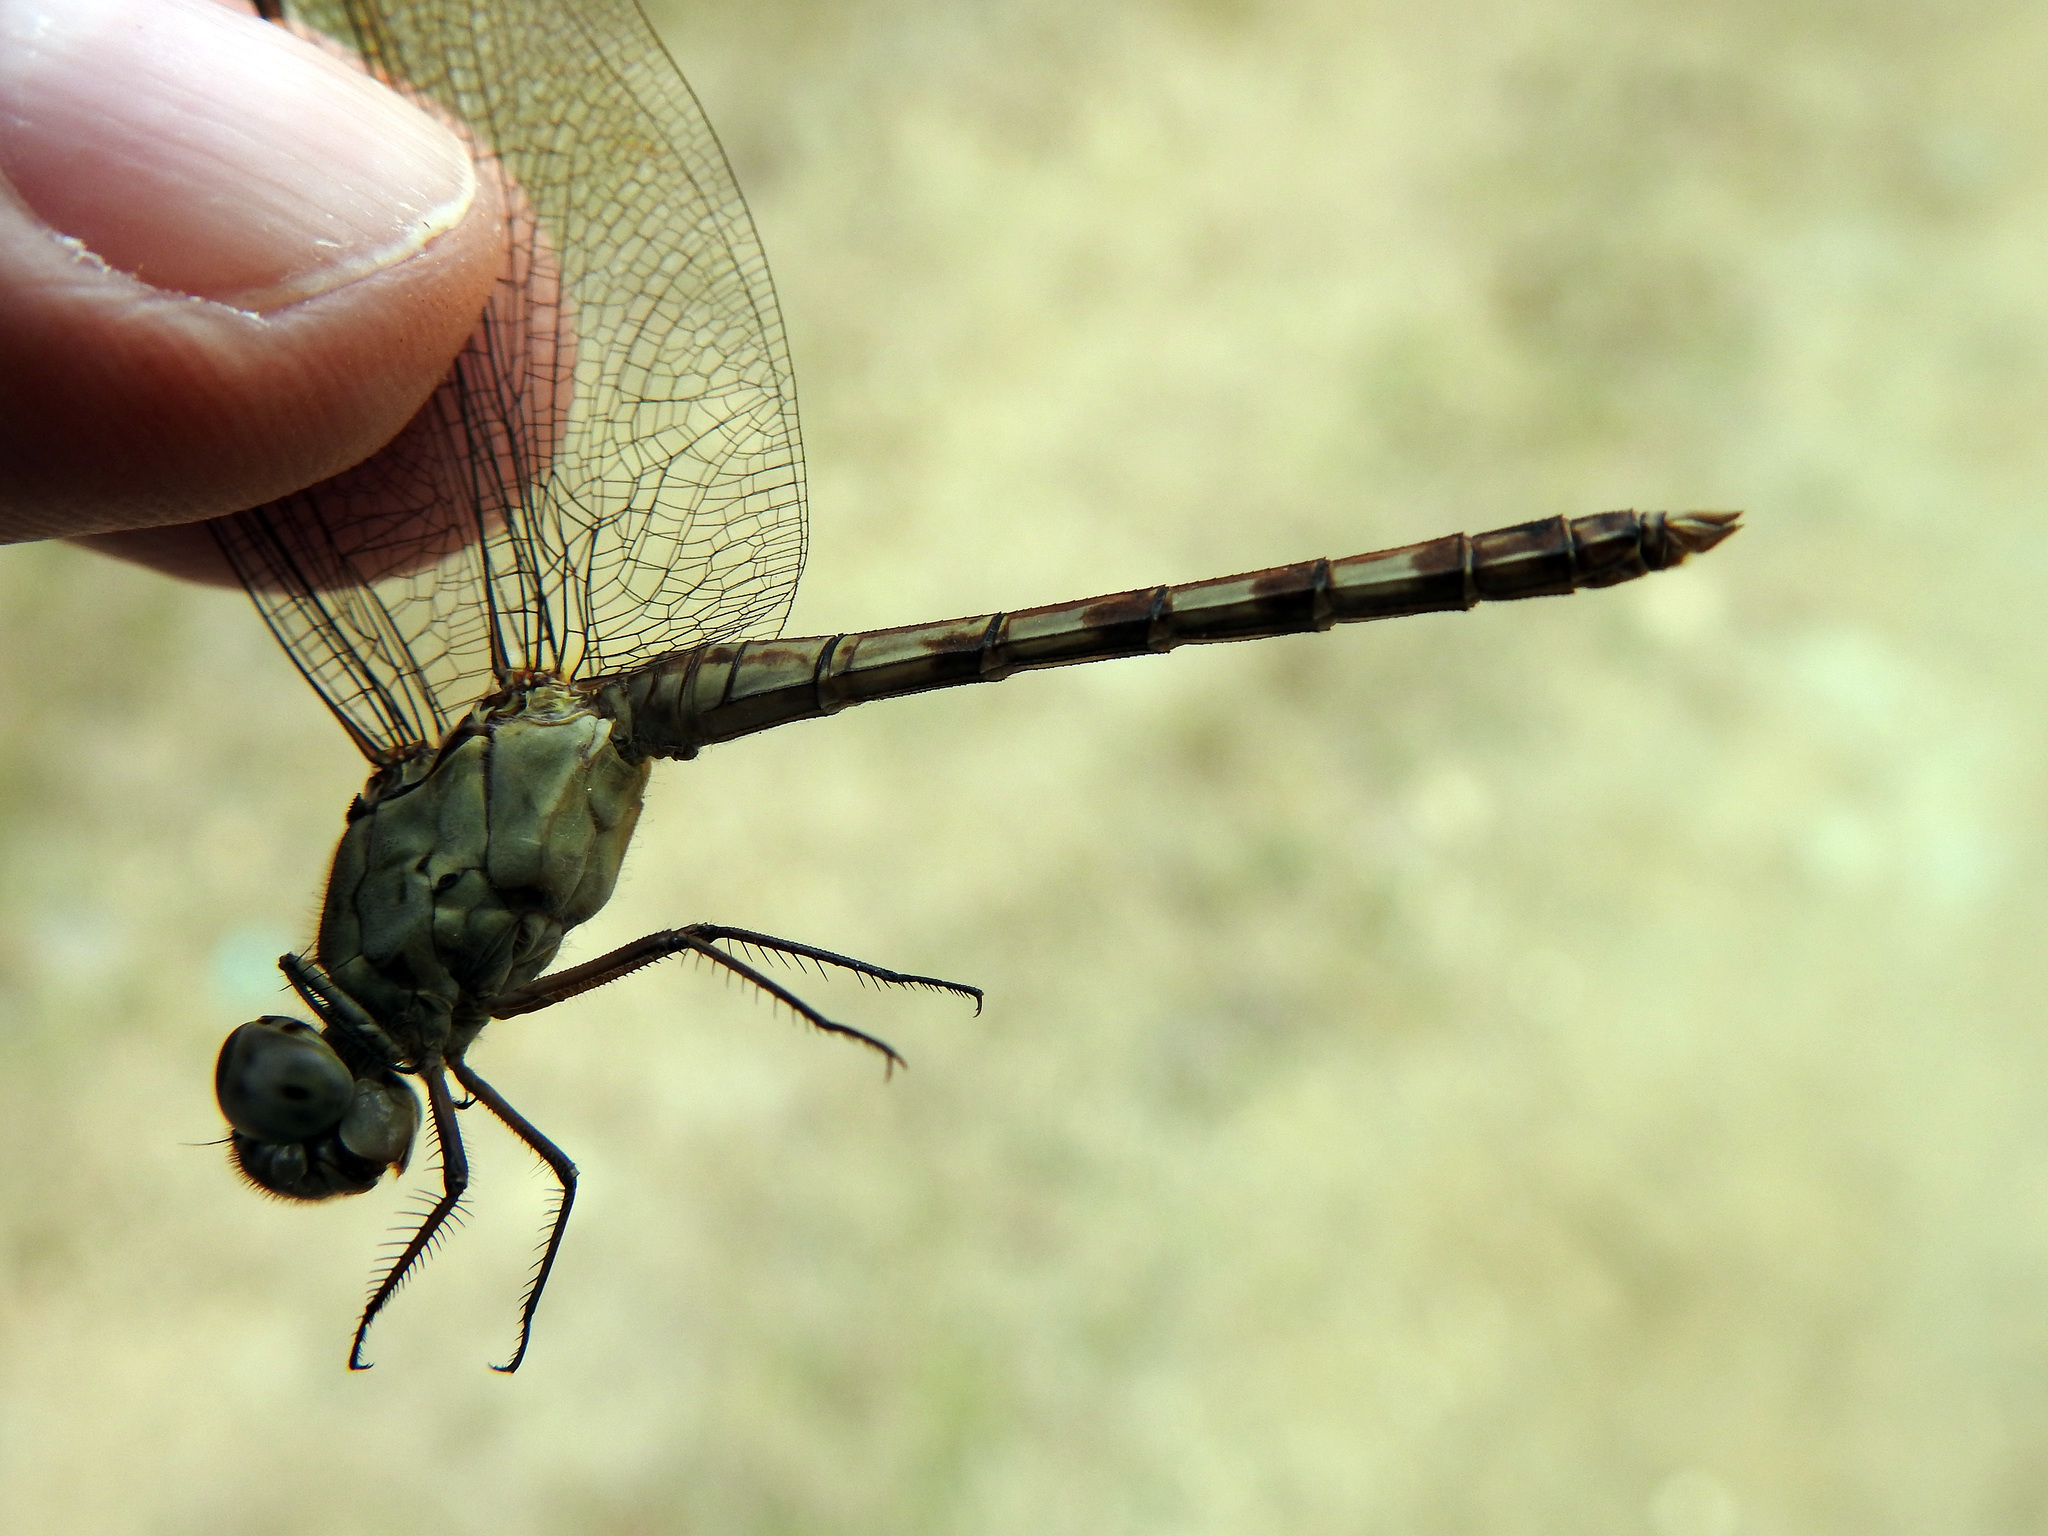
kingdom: Animalia
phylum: Arthropoda
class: Insecta
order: Odonata
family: Libellulidae
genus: Erythrodiplax
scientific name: Erythrodiplax umbrata
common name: Band-winged dragonlet
